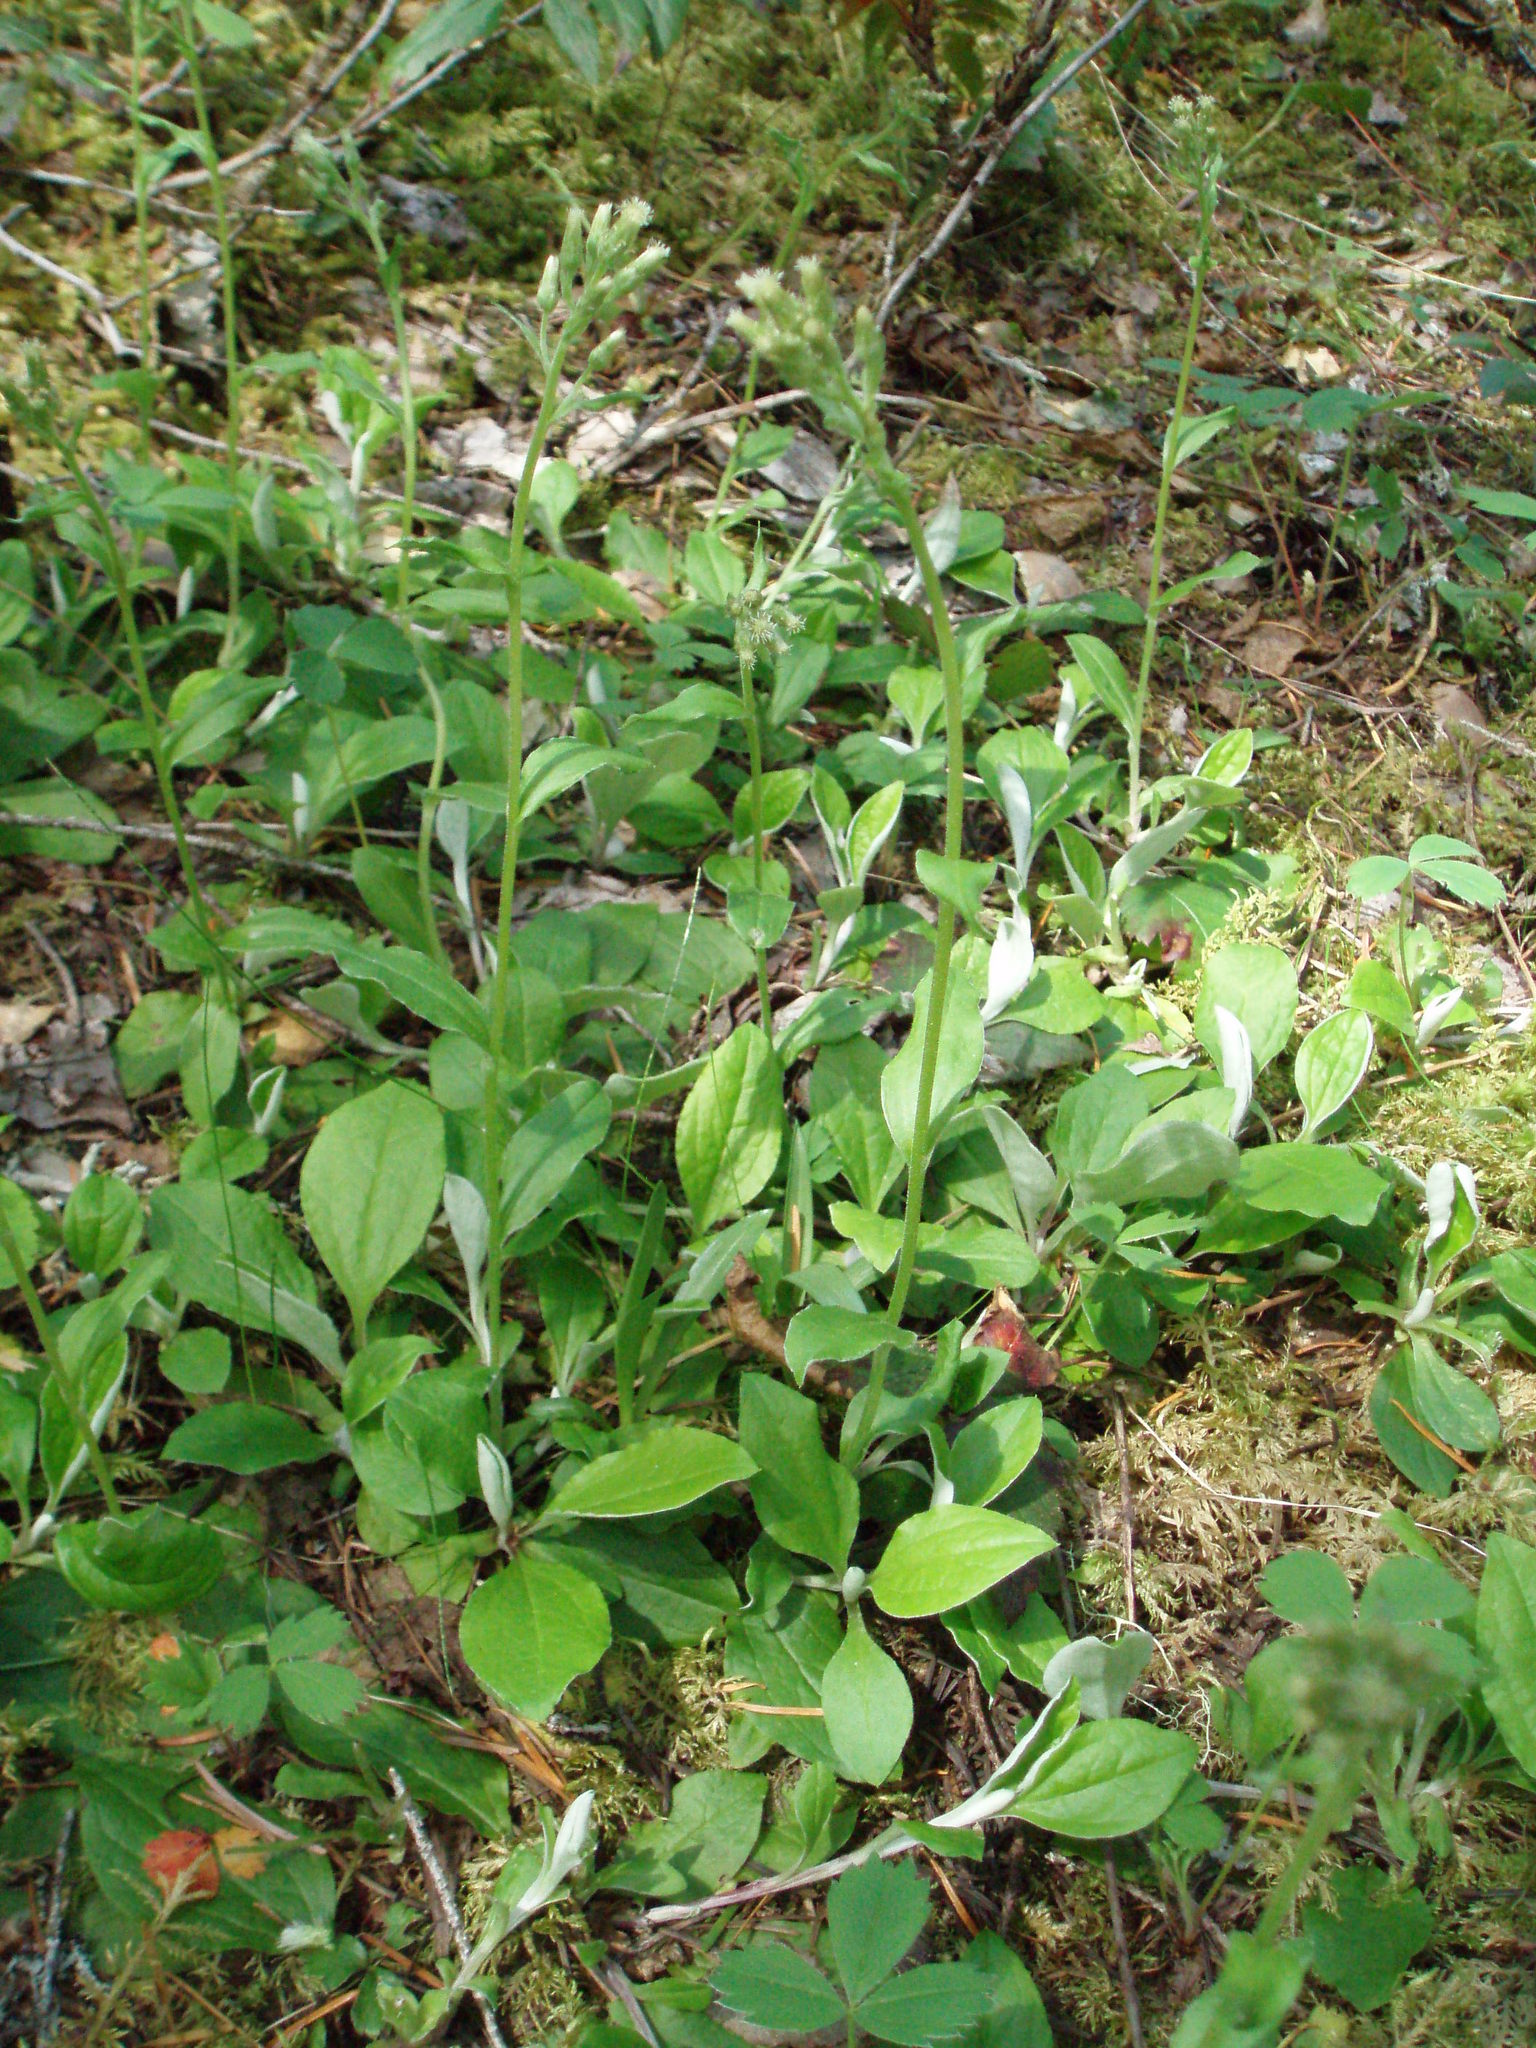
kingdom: Plantae
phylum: Tracheophyta
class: Magnoliopsida
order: Asterales
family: Asteraceae
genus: Antennaria
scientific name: Antennaria racemosa
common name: Racemose pussytoes
